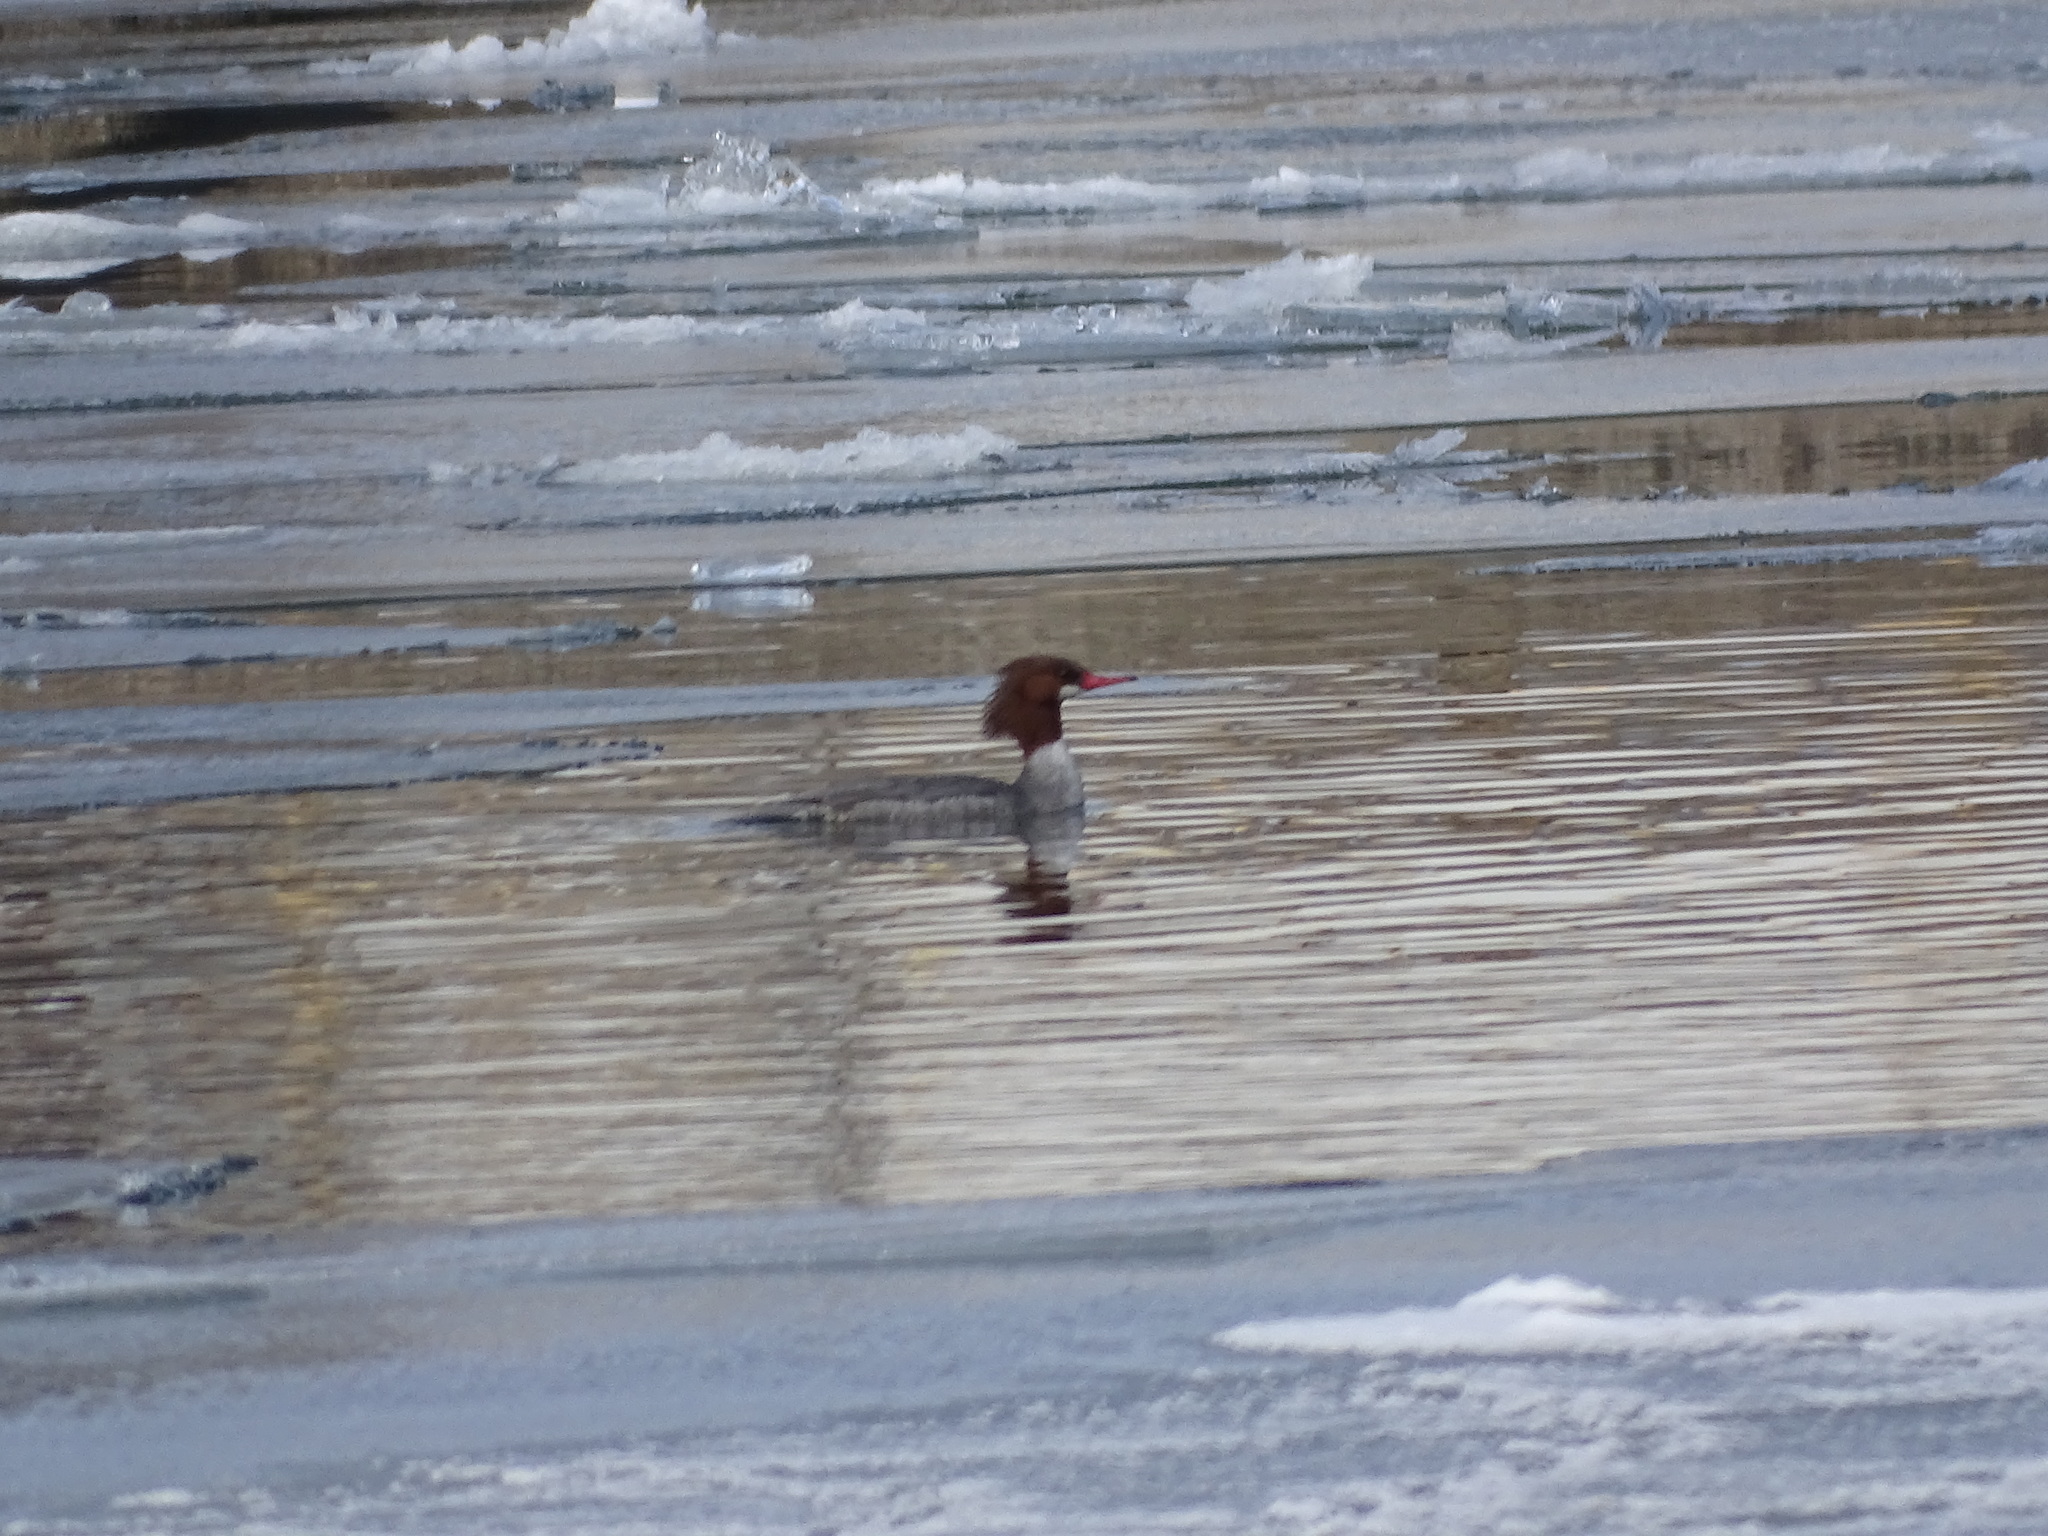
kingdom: Animalia
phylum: Chordata
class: Aves
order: Anseriformes
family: Anatidae
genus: Mergus
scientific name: Mergus merganser
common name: Common merganser
